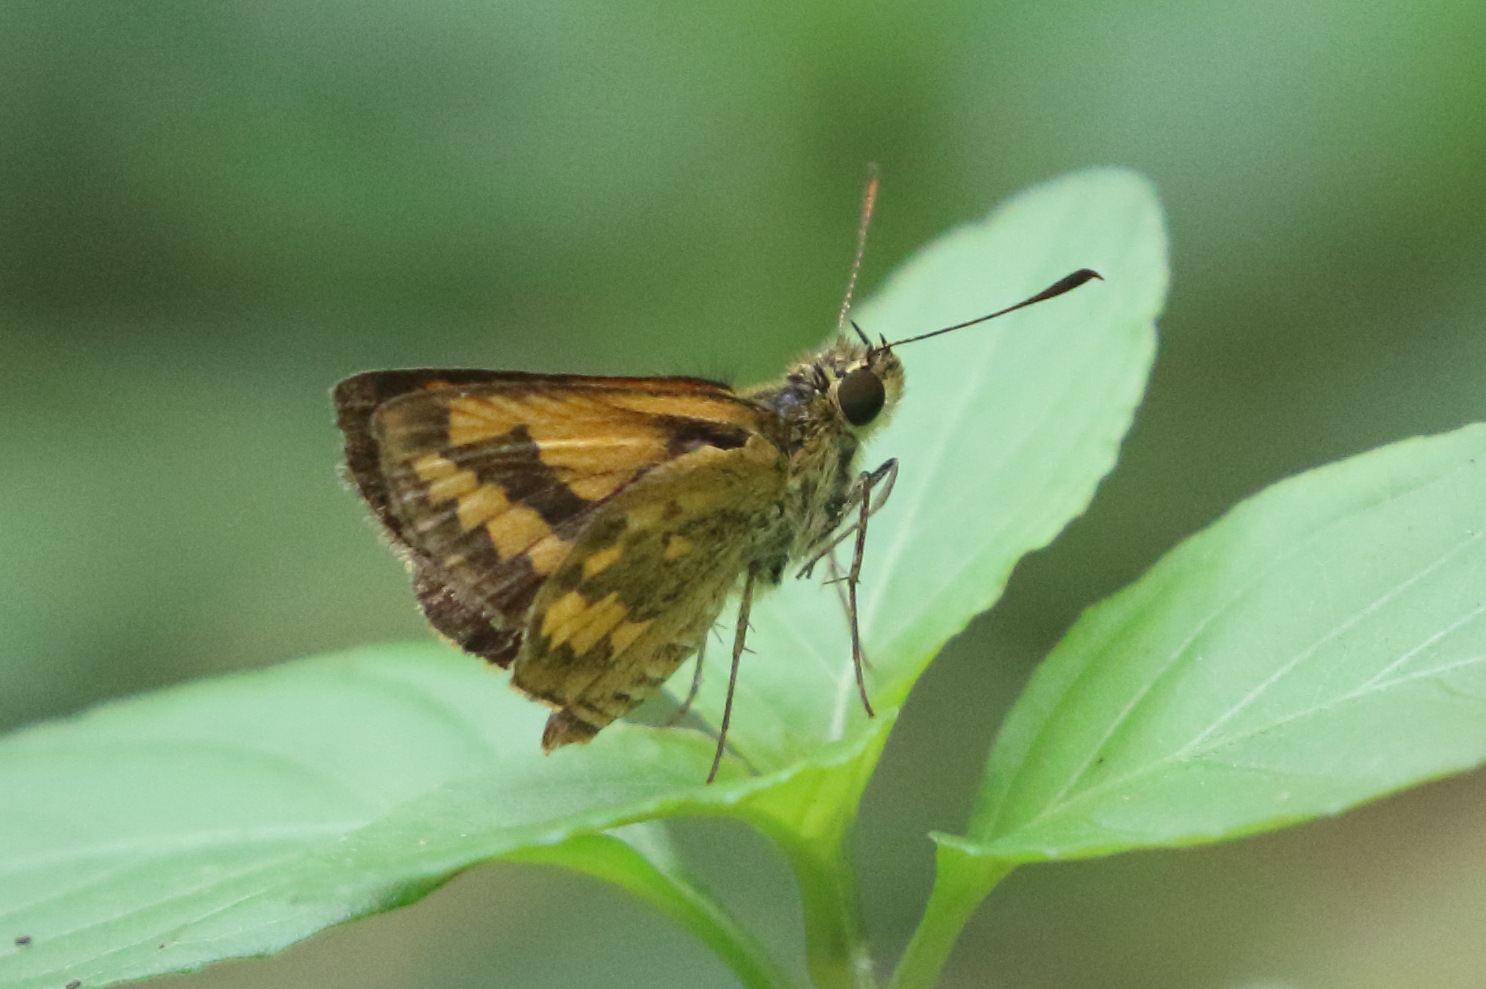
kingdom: Animalia
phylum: Arthropoda
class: Insecta
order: Lepidoptera
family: Hesperiidae
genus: Suniana
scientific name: Suniana sunias
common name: Wide-brand grass-dart
